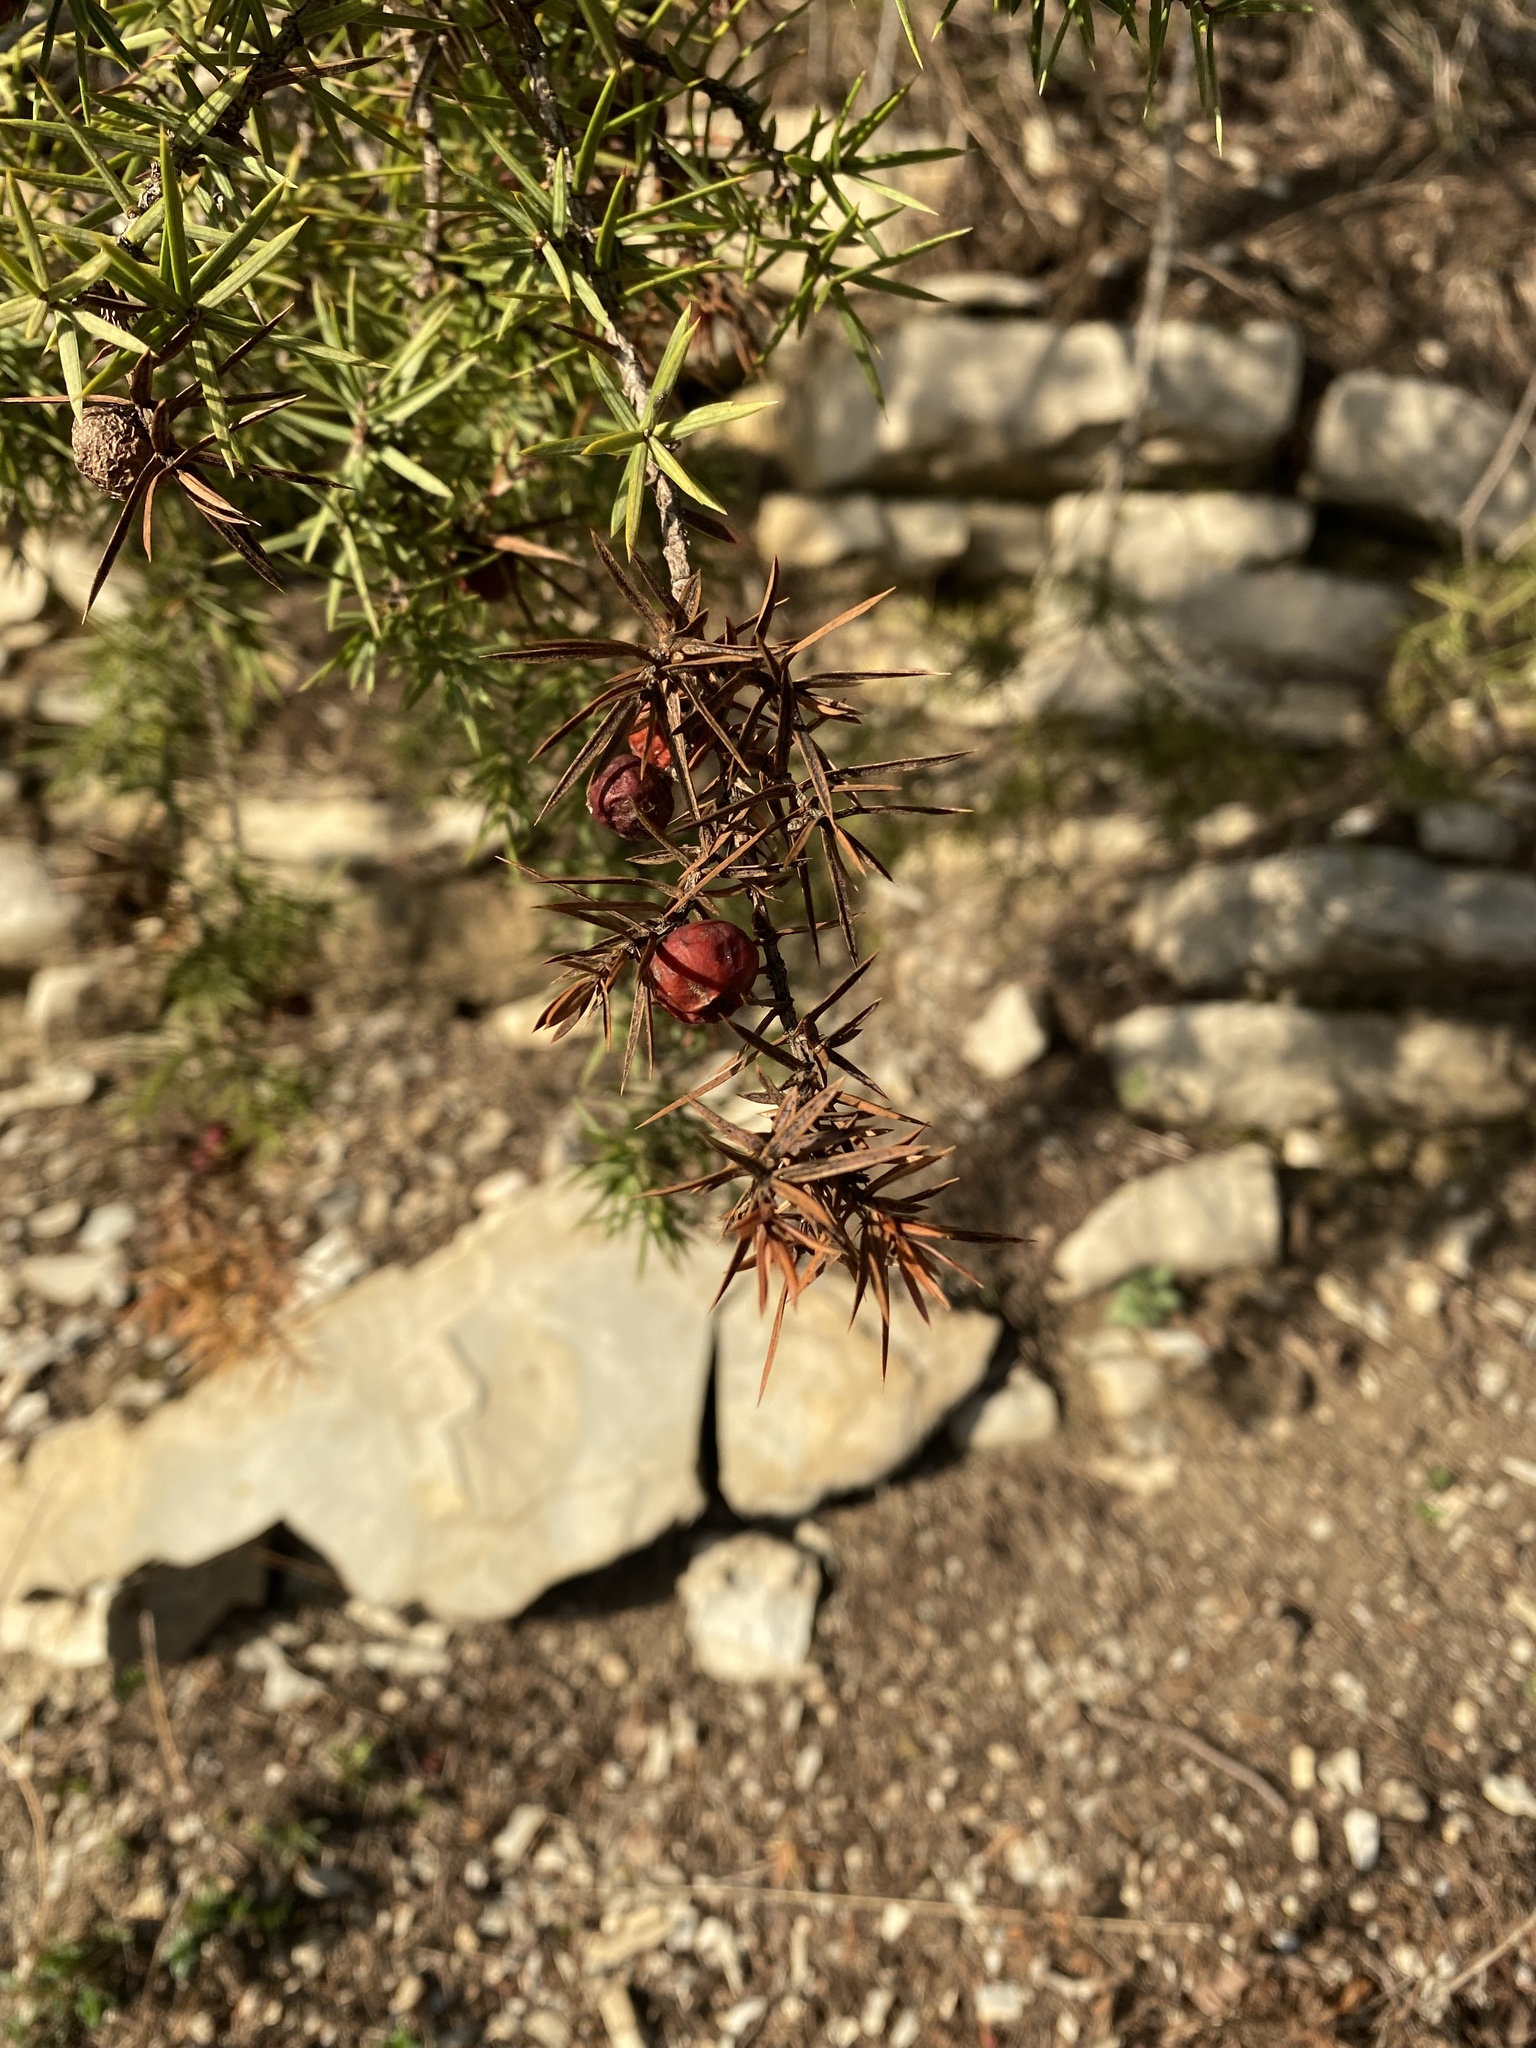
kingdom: Plantae
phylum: Tracheophyta
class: Pinopsida
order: Pinales
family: Cupressaceae
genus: Juniperus
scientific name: Juniperus oxycedrus
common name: Prickly juniper
